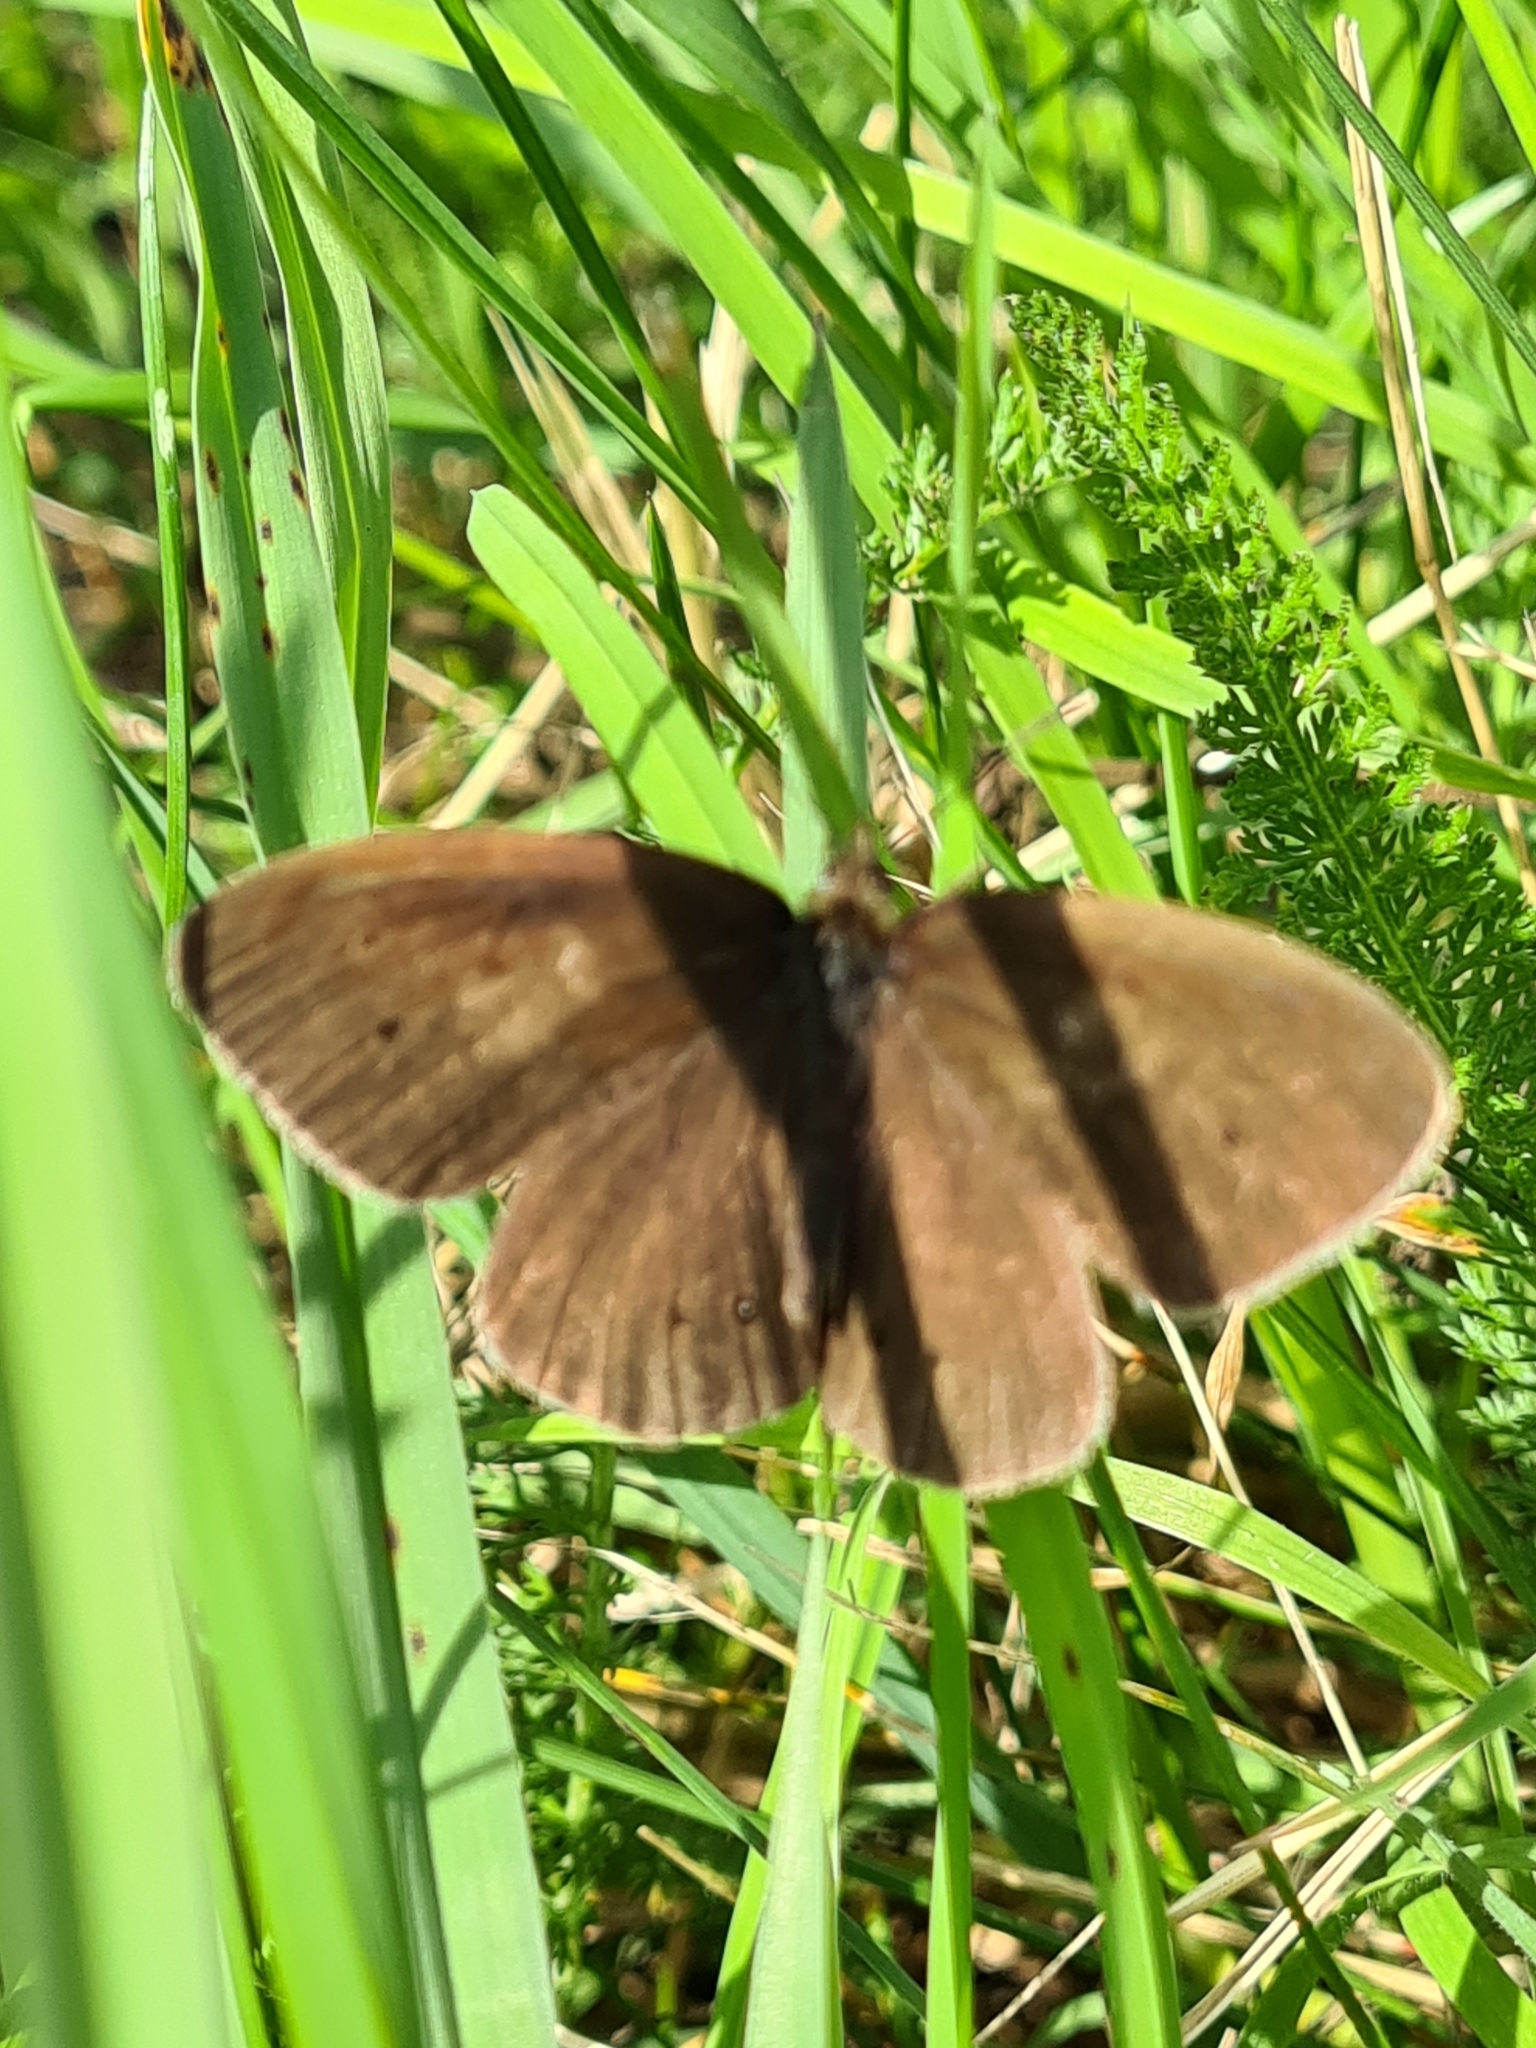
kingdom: Animalia
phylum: Arthropoda
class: Insecta
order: Lepidoptera
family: Nymphalidae
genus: Aphantopus
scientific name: Aphantopus hyperantus
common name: Ringlet
